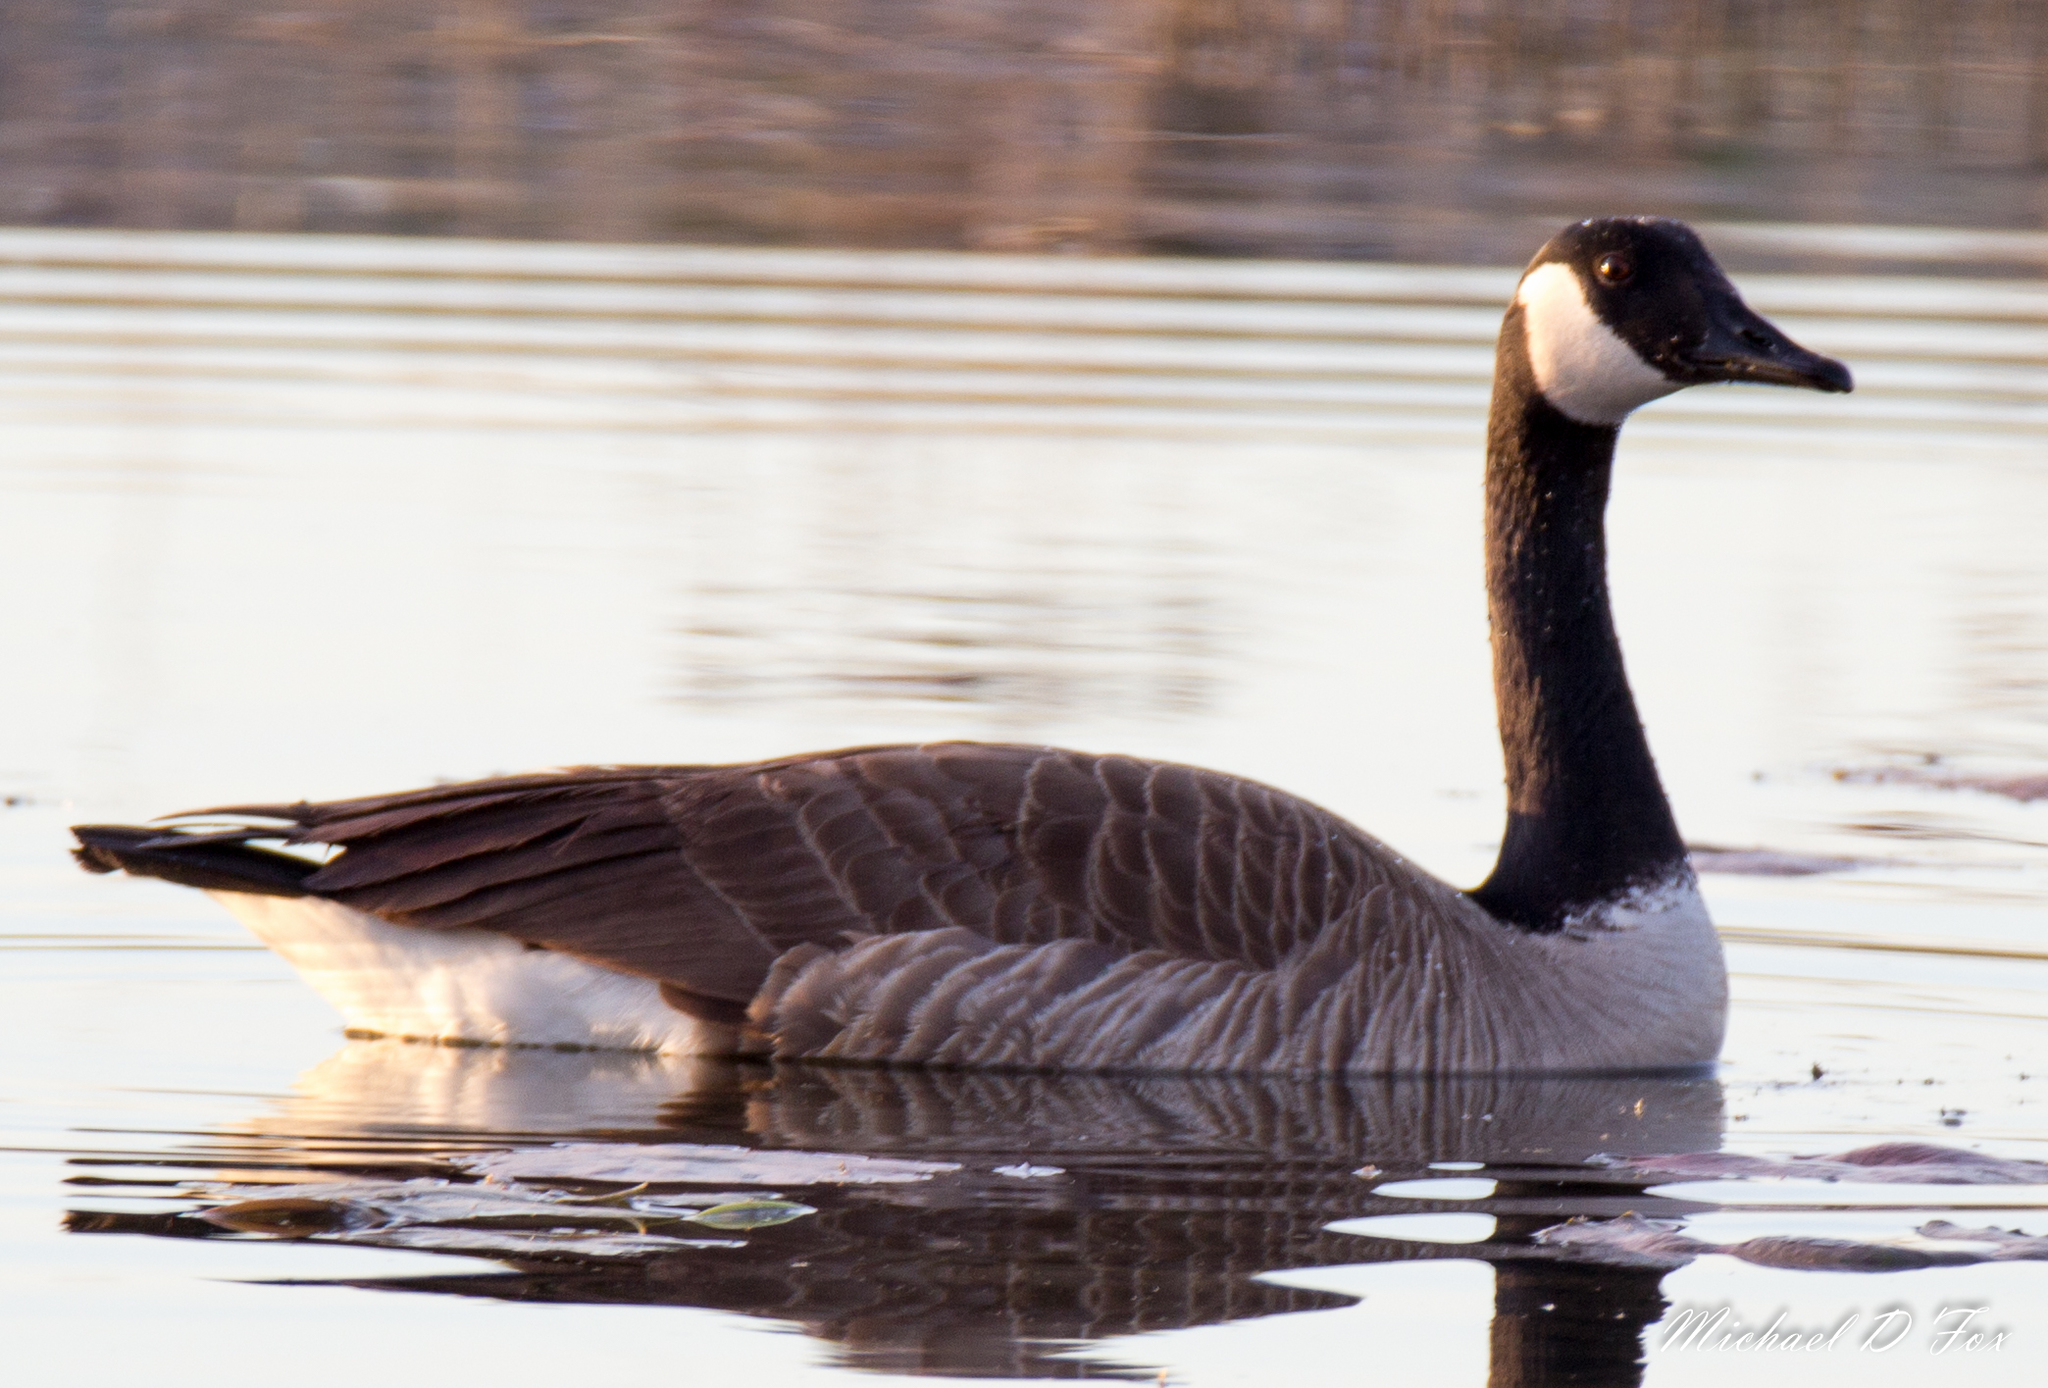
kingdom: Animalia
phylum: Chordata
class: Aves
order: Anseriformes
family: Anatidae
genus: Branta
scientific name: Branta canadensis
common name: Canada goose
